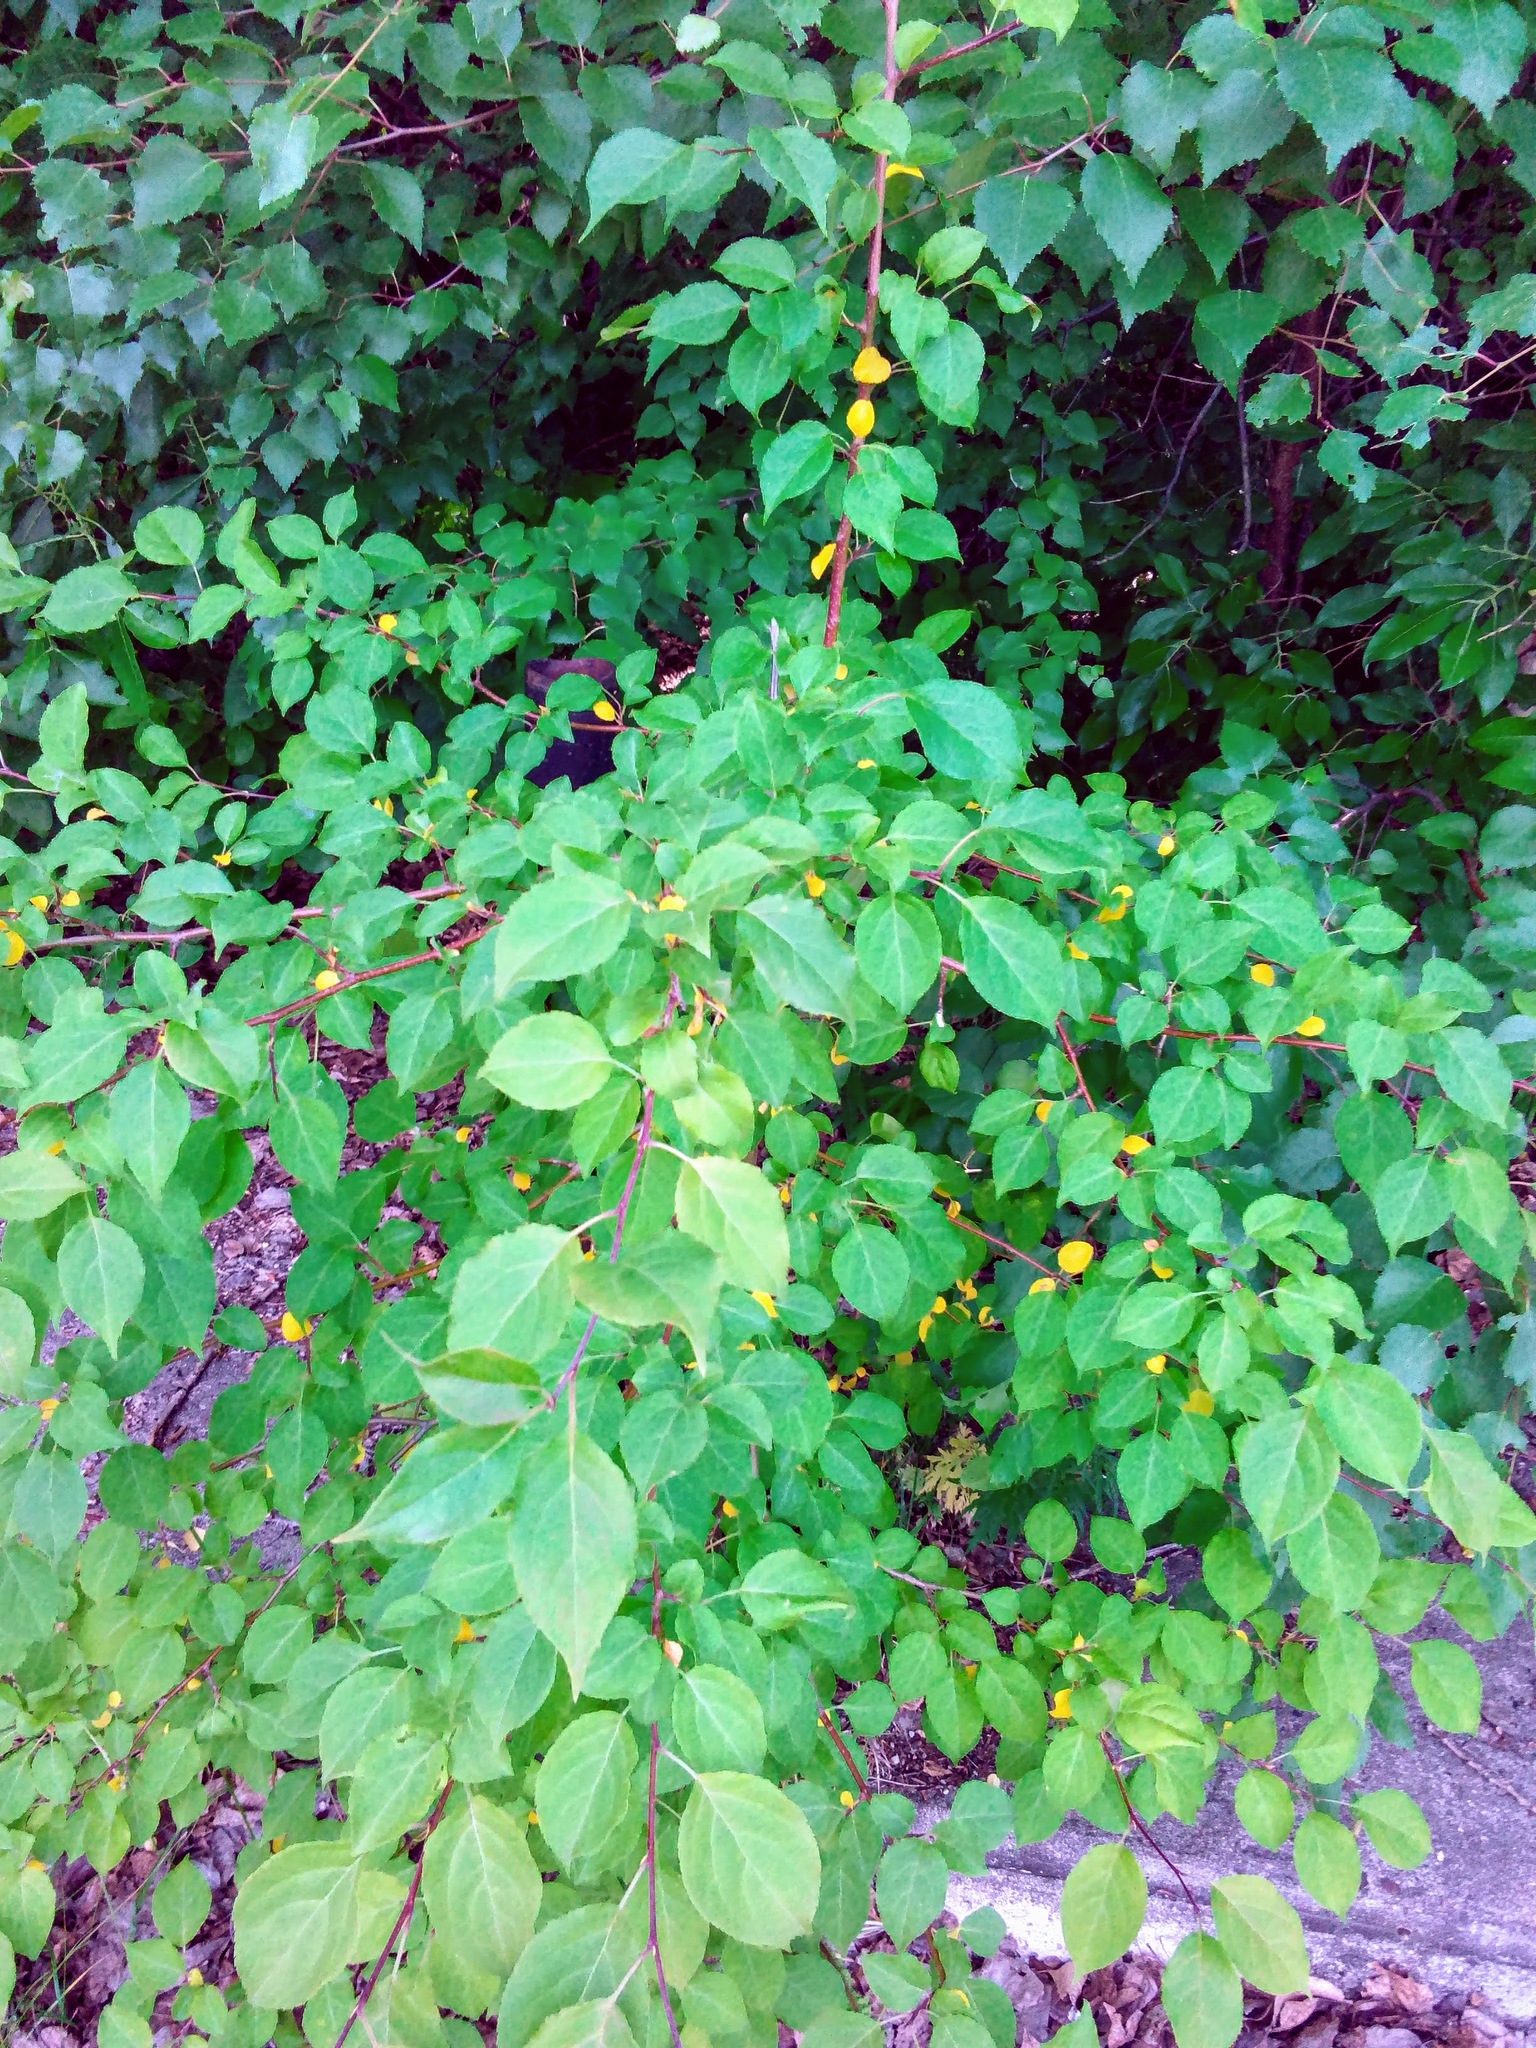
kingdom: Plantae
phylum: Tracheophyta
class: Magnoliopsida
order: Rosales
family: Rosaceae
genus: Malus
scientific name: Malus baccata
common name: Siberian crab
